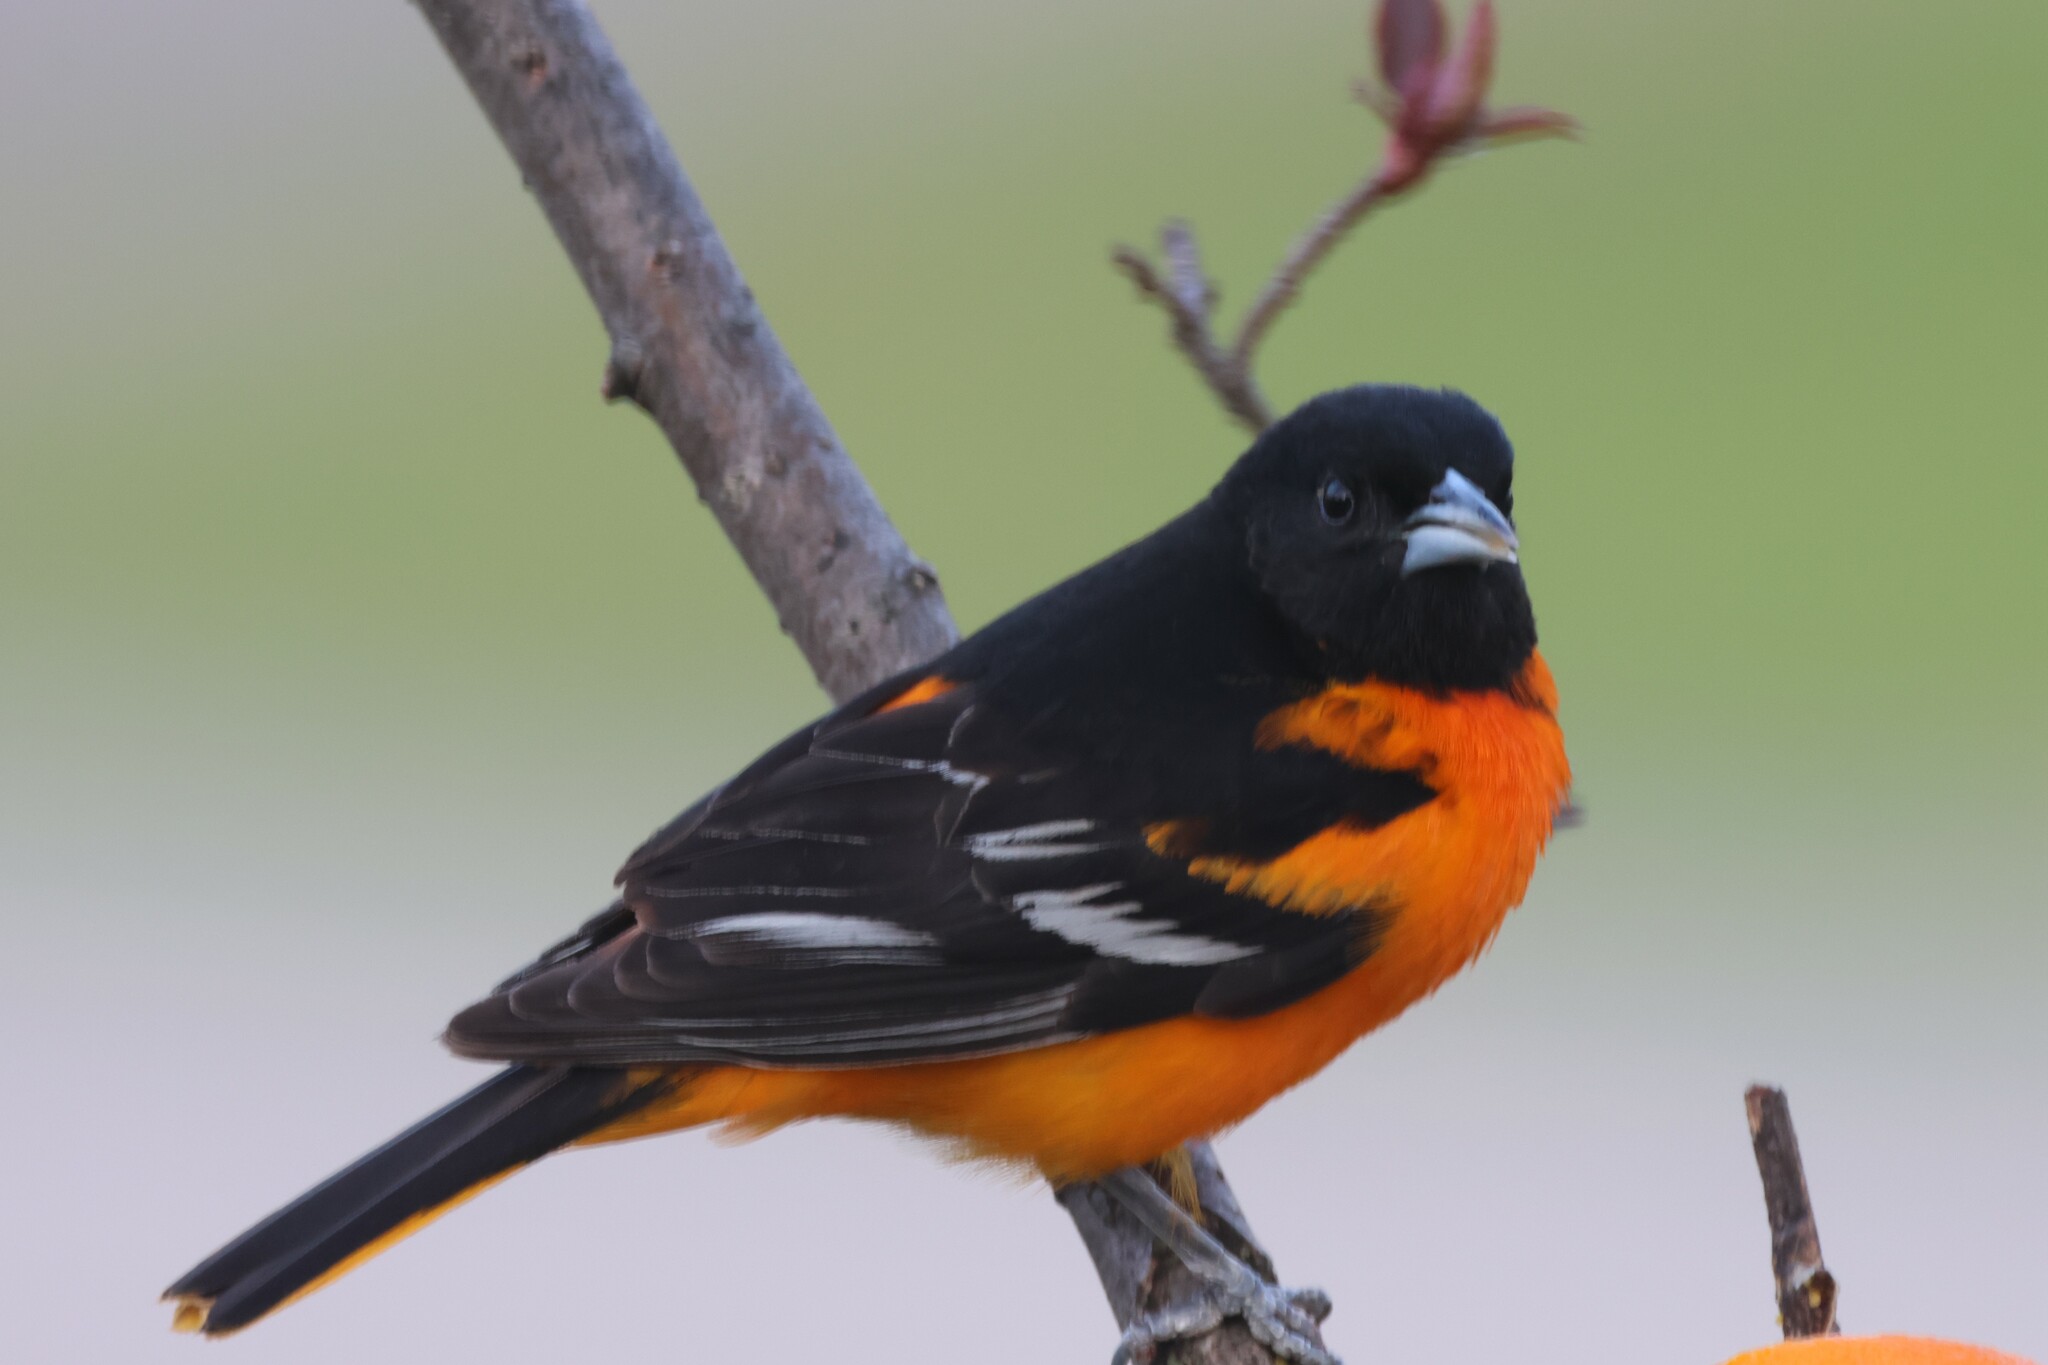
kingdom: Animalia
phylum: Chordata
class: Aves
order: Passeriformes
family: Icteridae
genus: Icterus
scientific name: Icterus galbula
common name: Baltimore oriole
